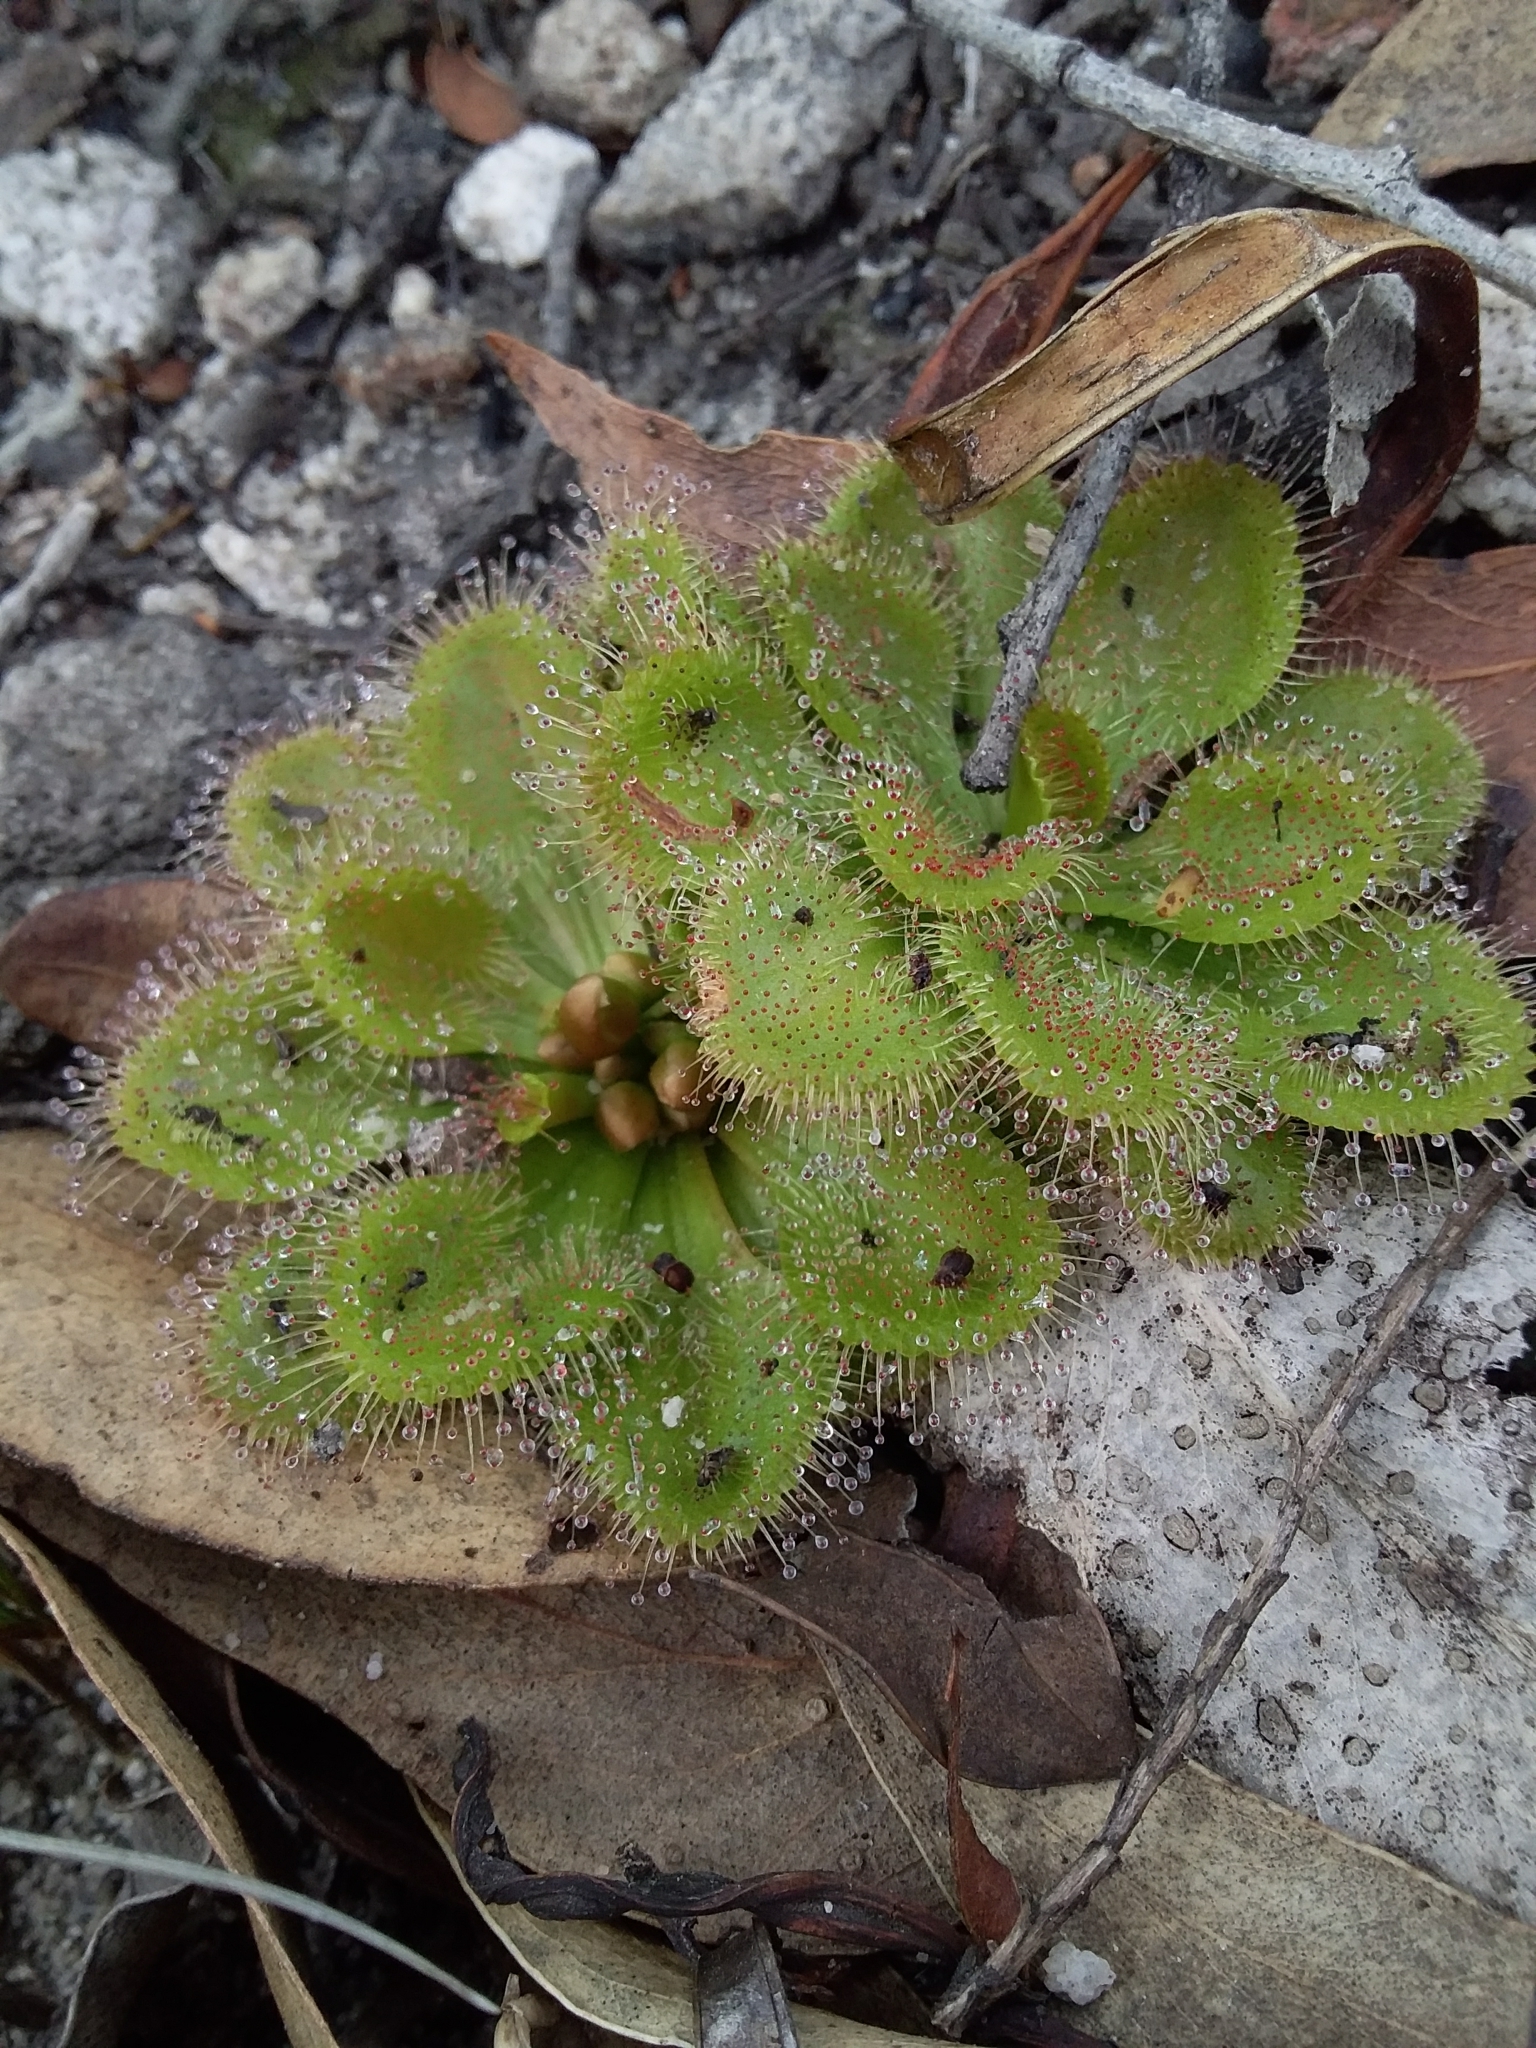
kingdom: Plantae
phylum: Tracheophyta
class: Magnoliopsida
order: Caryophyllales
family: Droseraceae
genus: Drosera
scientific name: Drosera whittakeri
